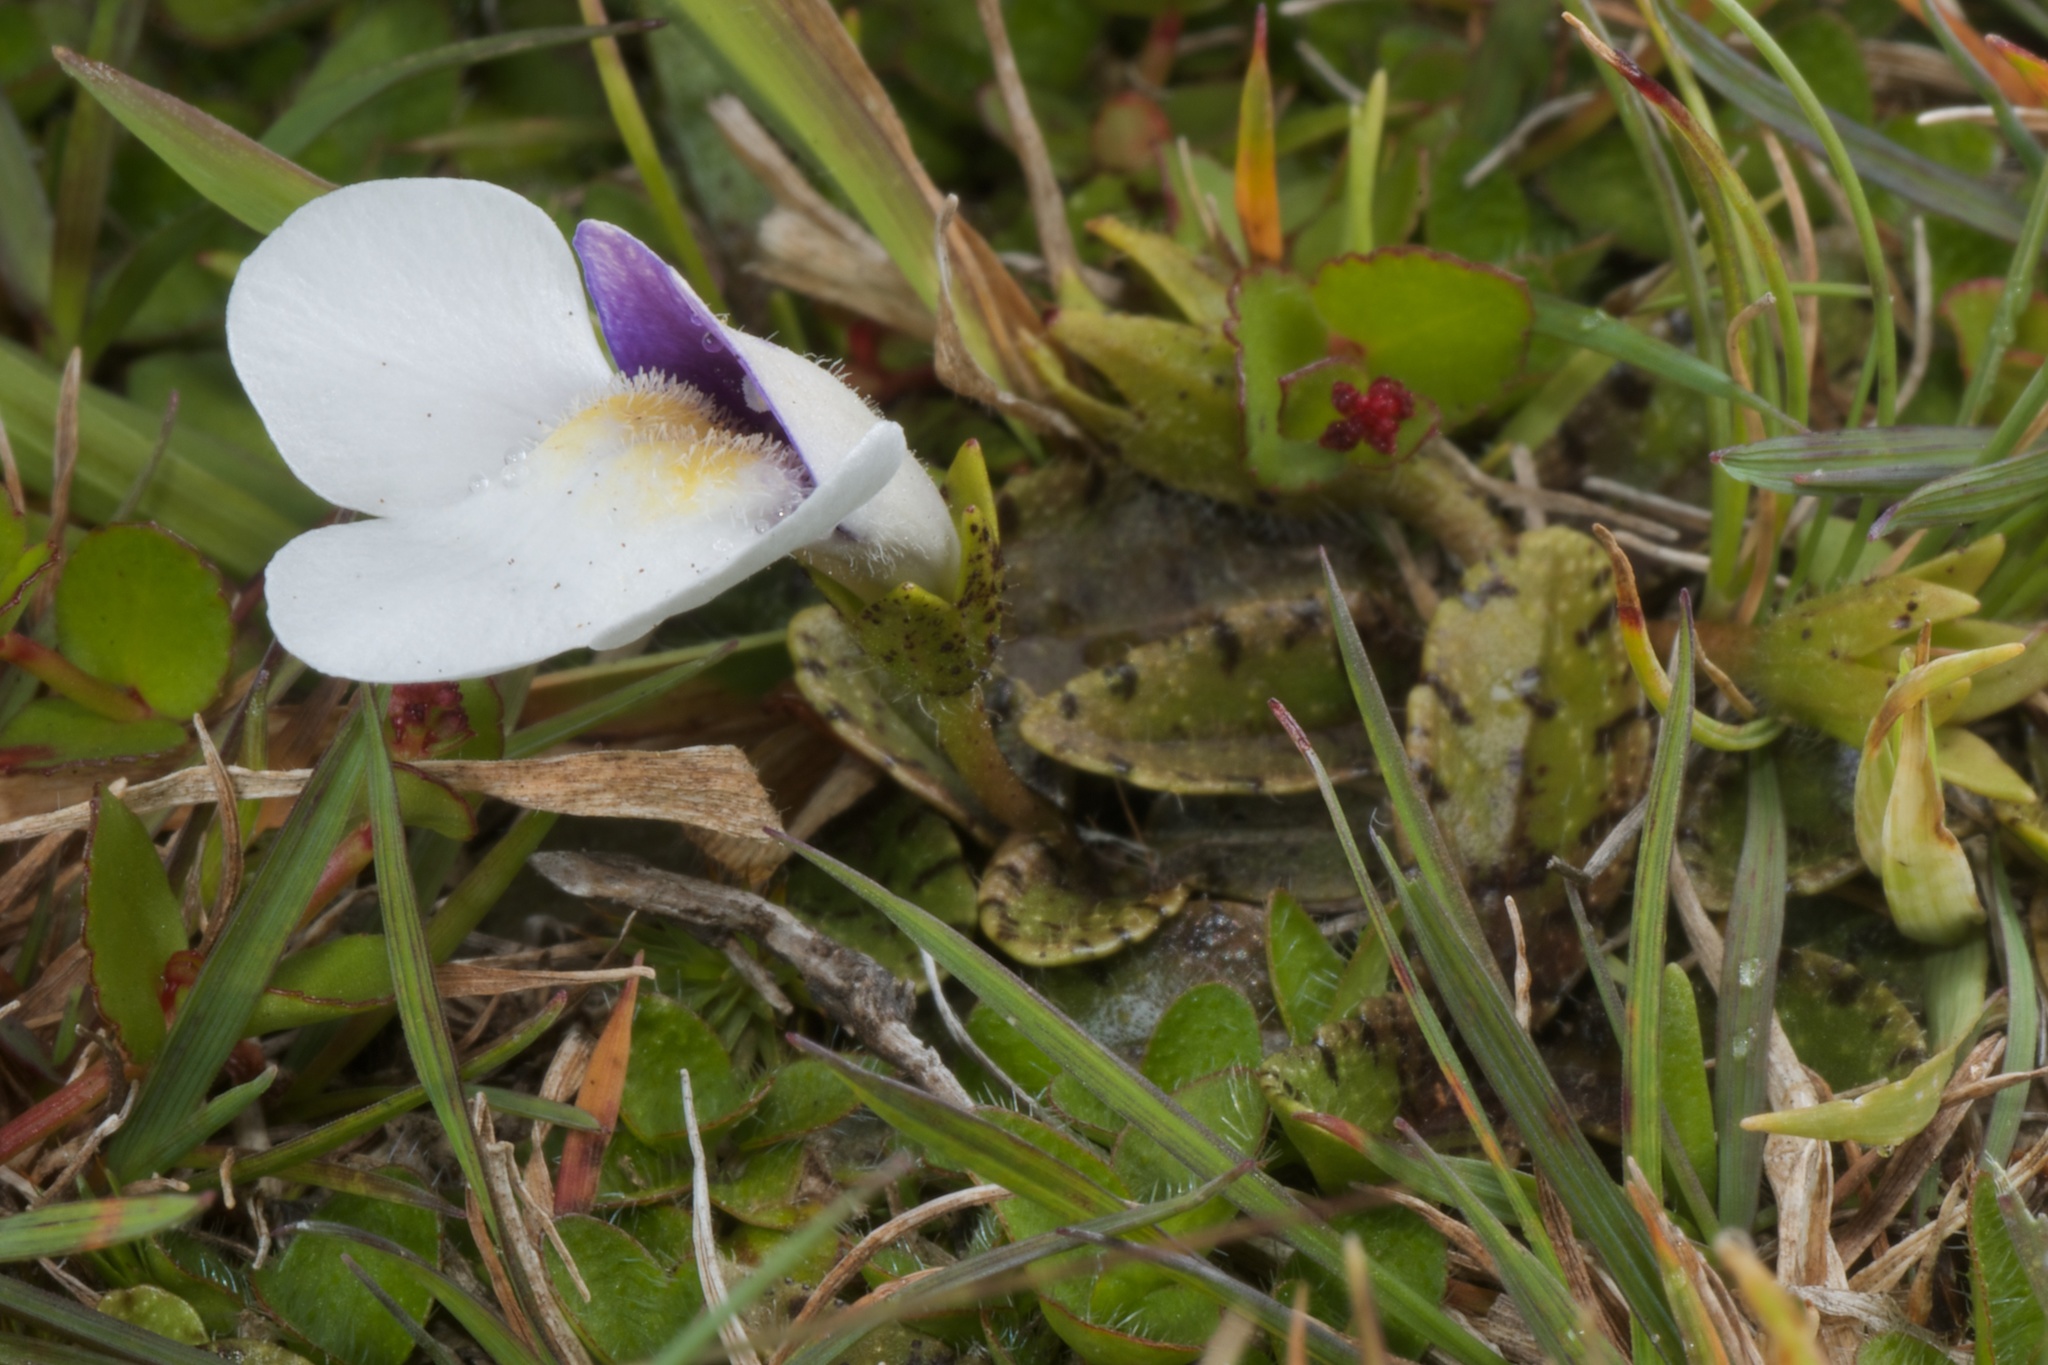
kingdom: Plantae
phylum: Tracheophyta
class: Magnoliopsida
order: Lamiales
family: Mazaceae
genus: Mazus
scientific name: Mazus radicans
